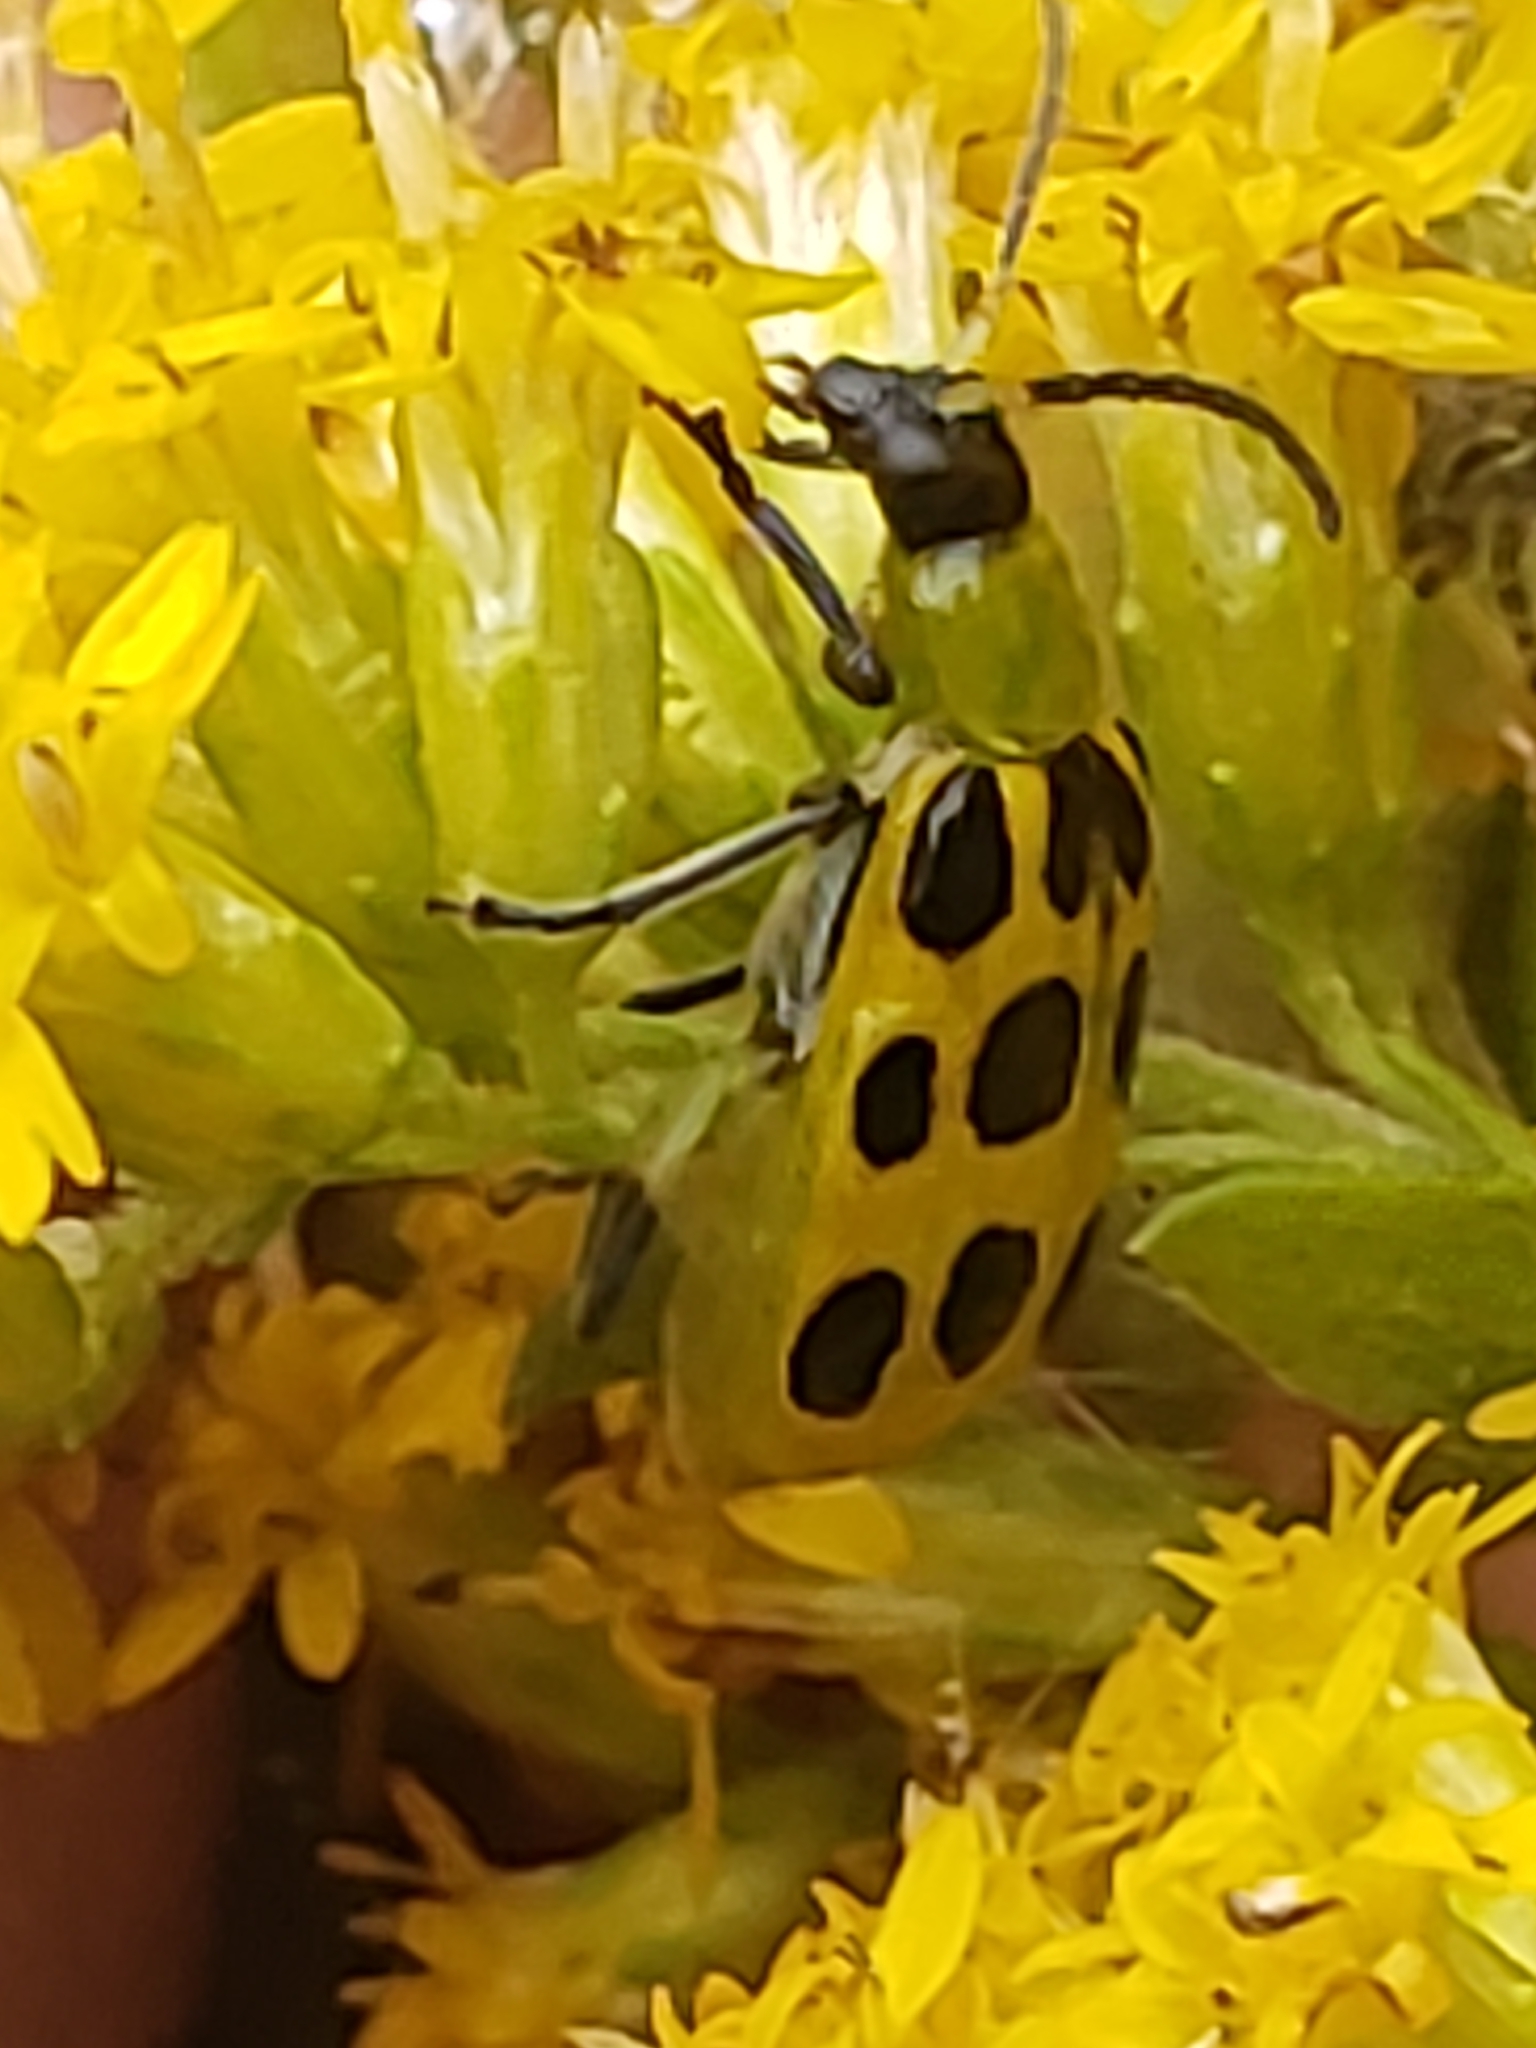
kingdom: Animalia
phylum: Arthropoda
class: Insecta
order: Coleoptera
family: Chrysomelidae
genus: Diabrotica
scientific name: Diabrotica undecimpunctata
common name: Spotted cucumber beetle
